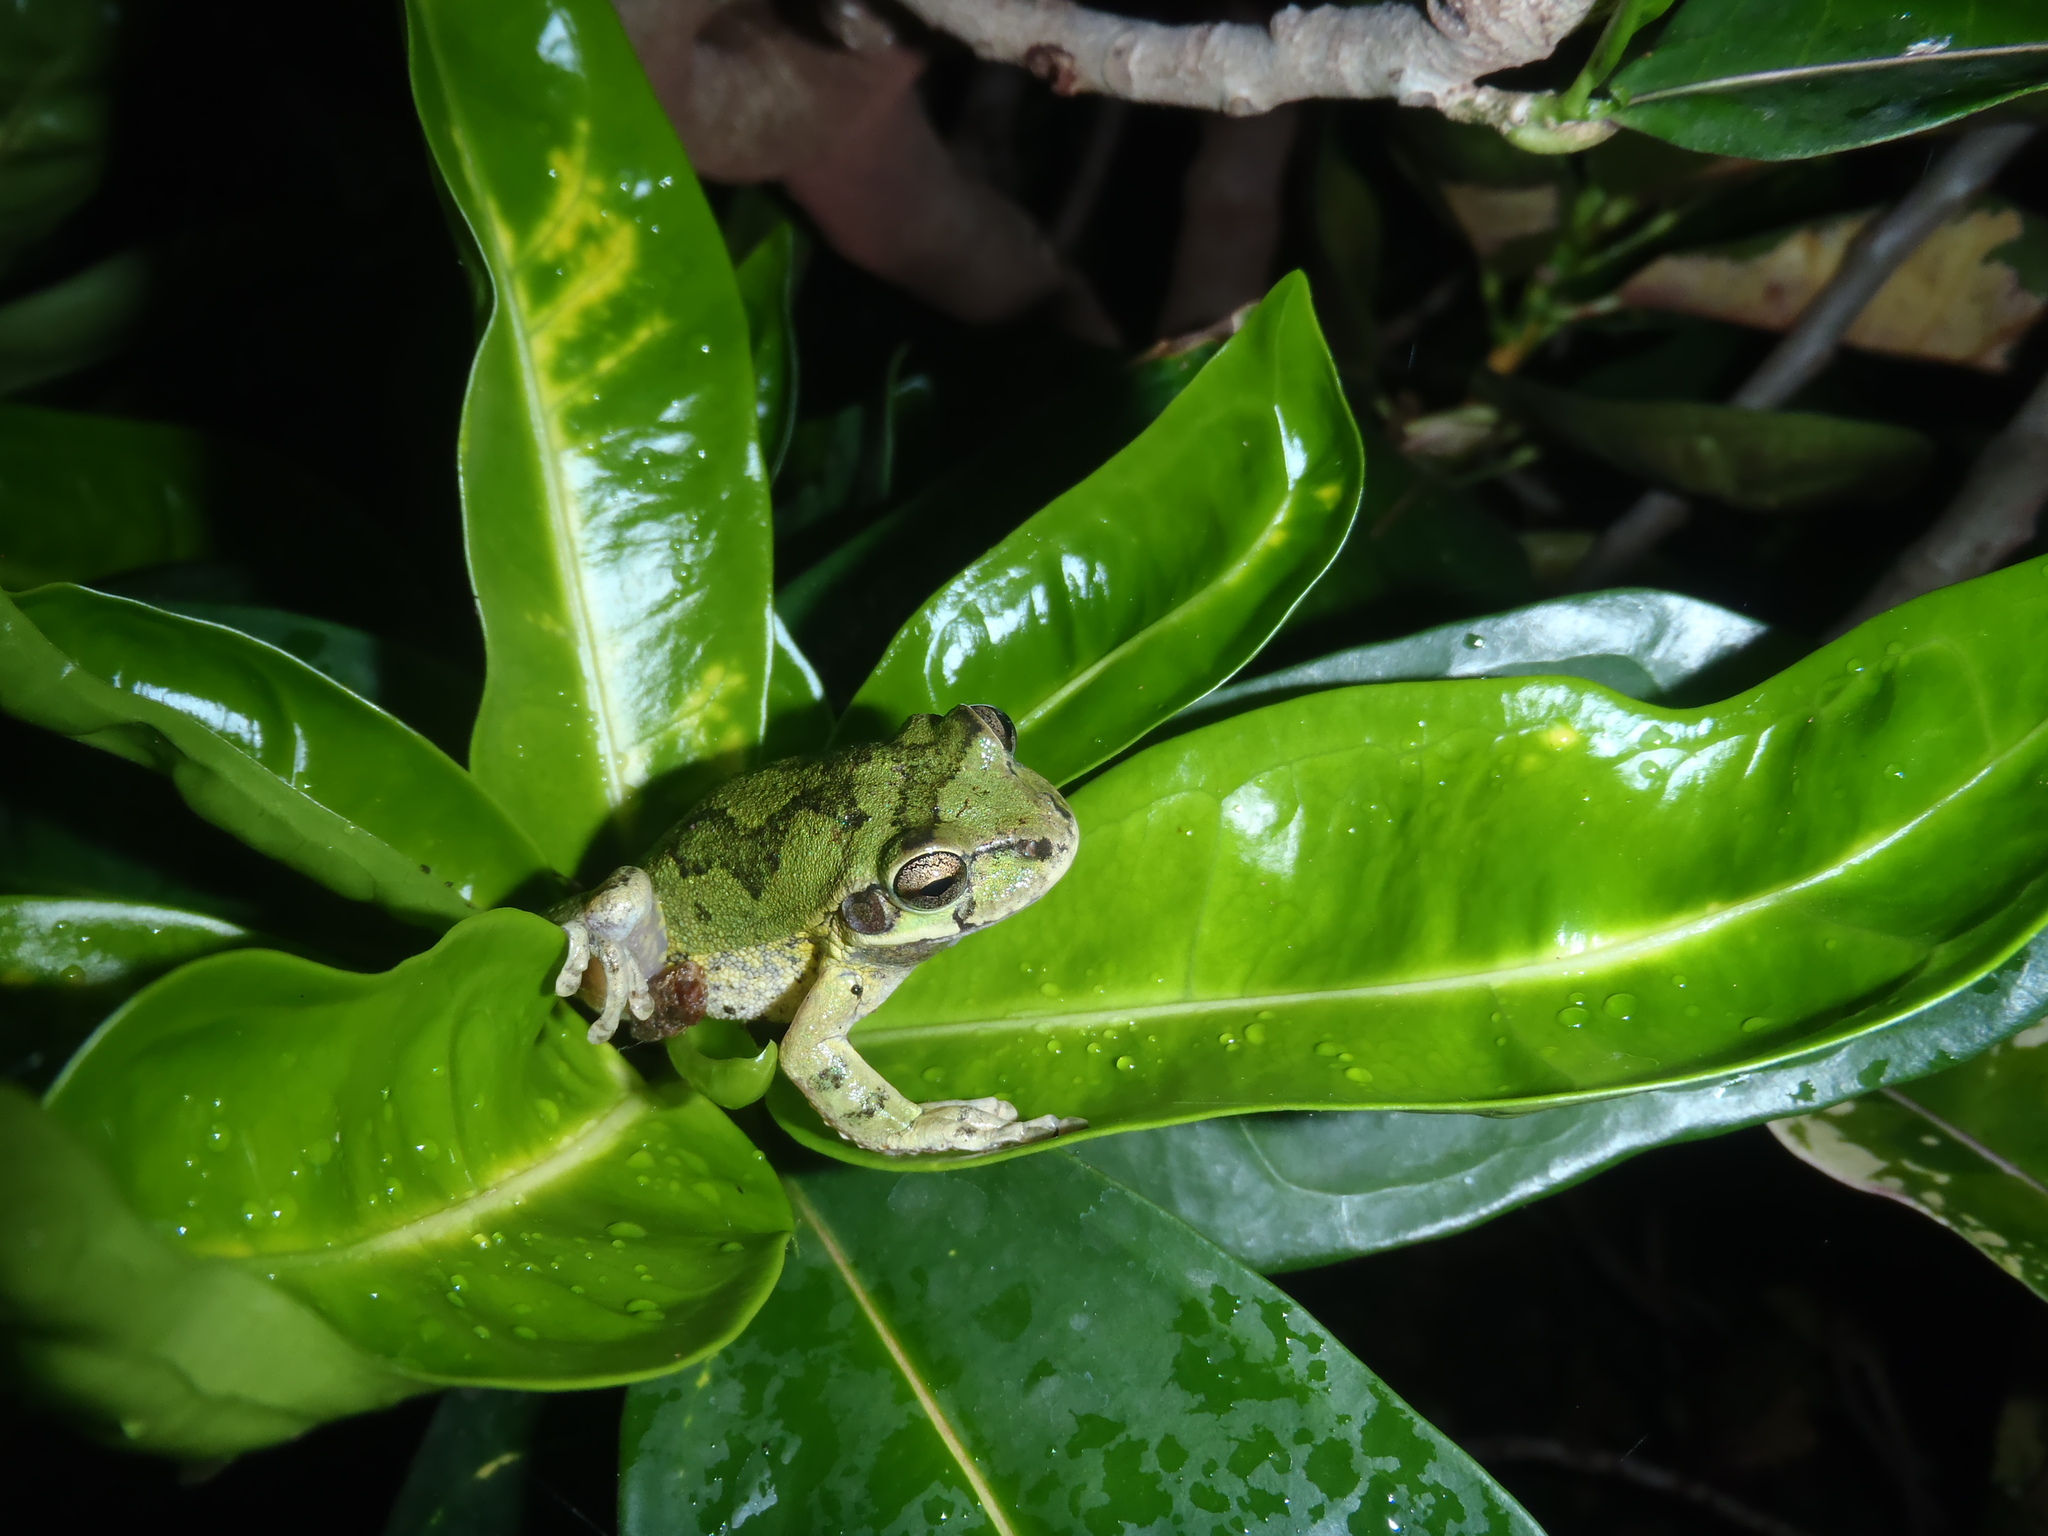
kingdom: Animalia
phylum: Chordata
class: Amphibia
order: Anura
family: Hylidae
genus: Smilisca
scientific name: Smilisca baudinii
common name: Mexican smilisca
